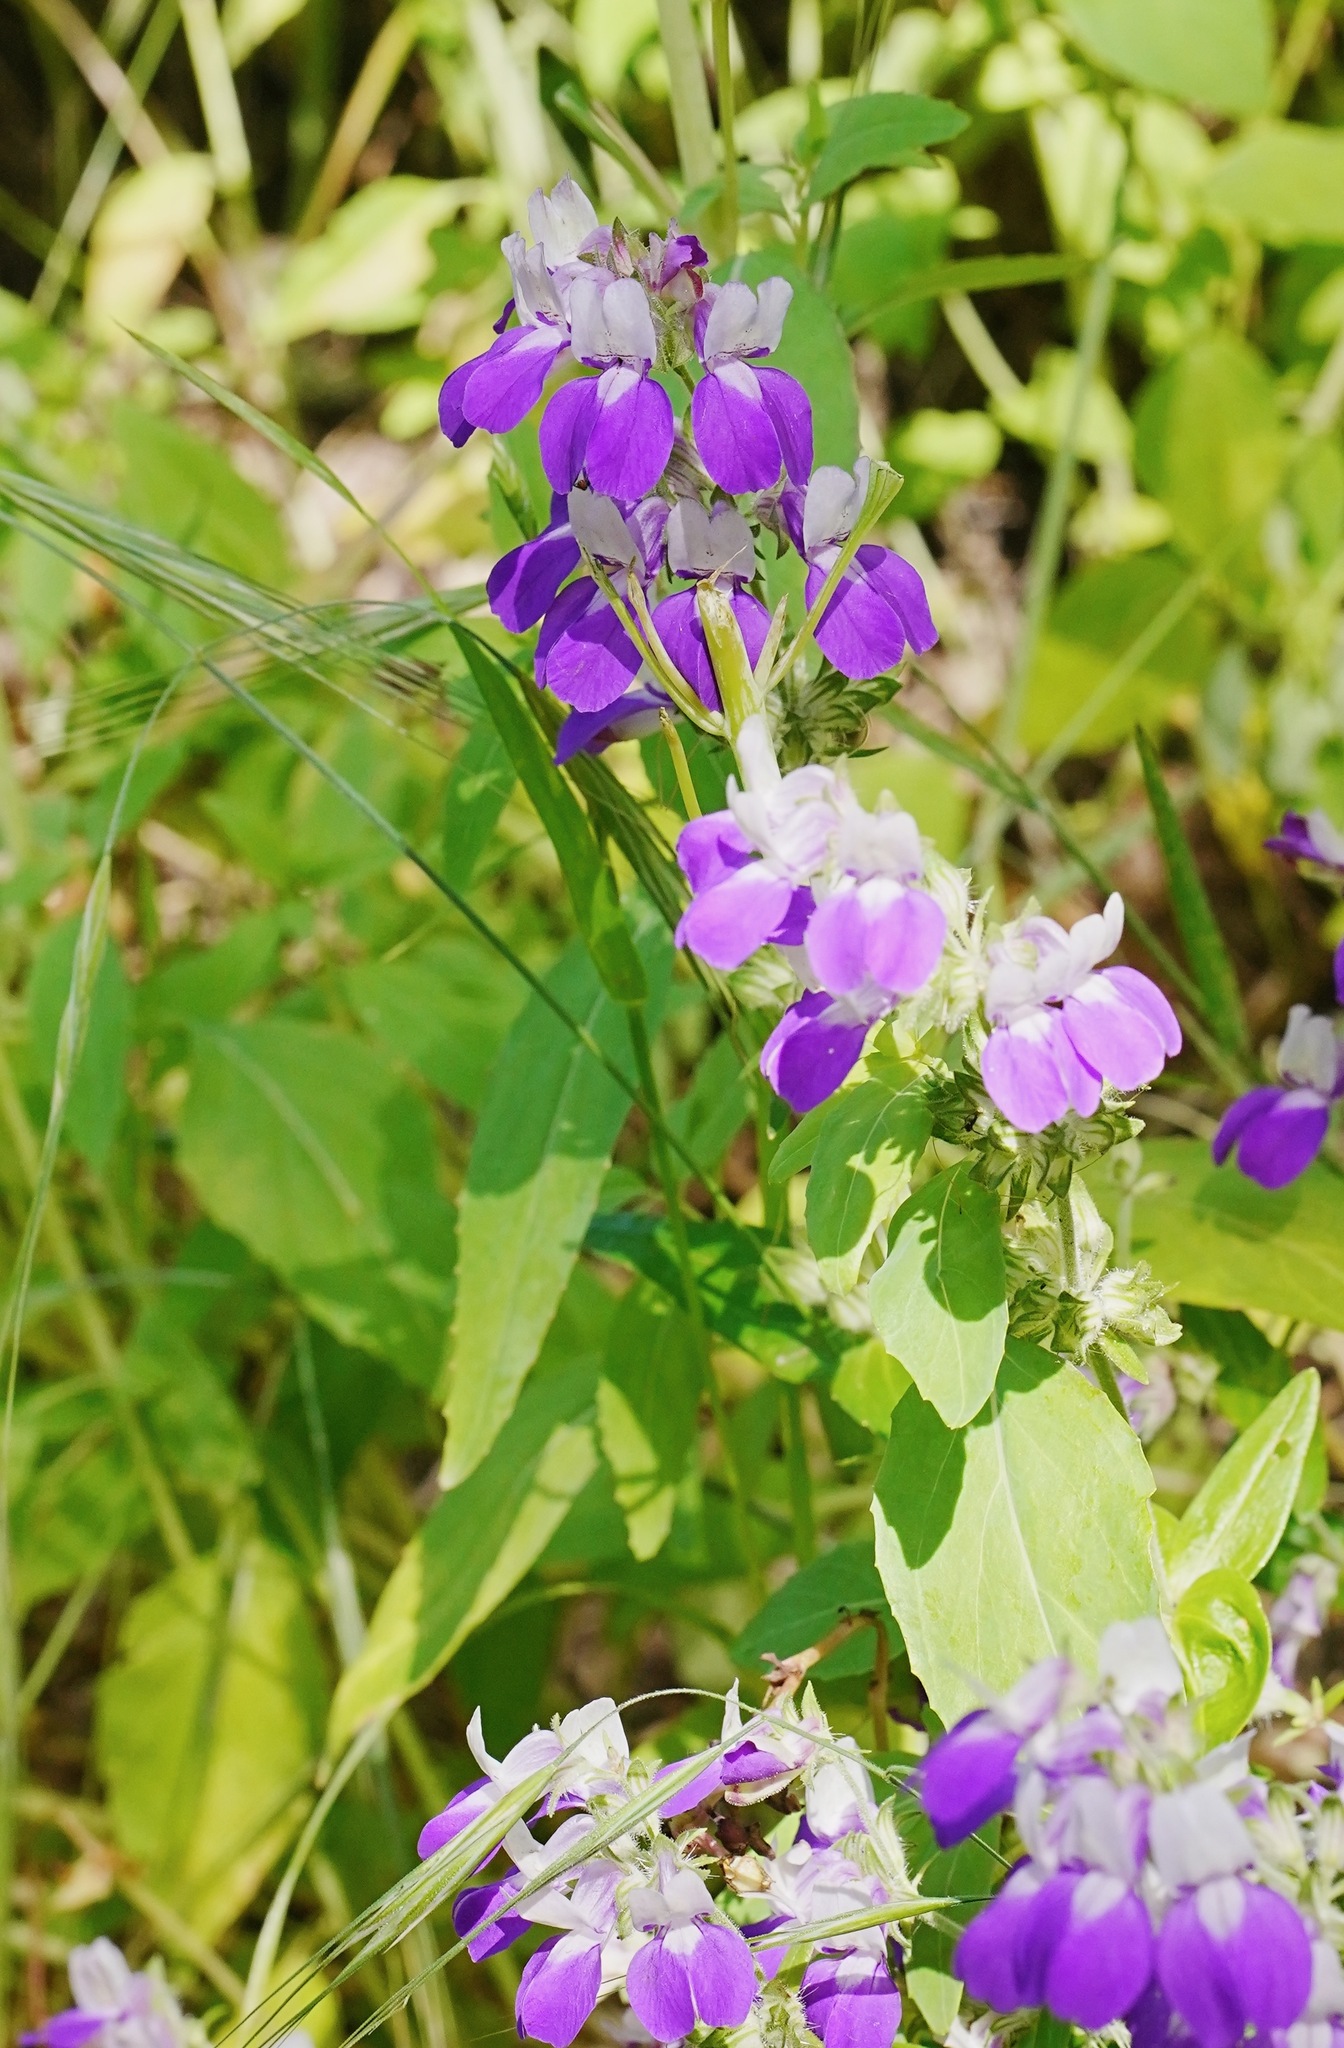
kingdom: Plantae
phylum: Tracheophyta
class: Magnoliopsida
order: Lamiales
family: Plantaginaceae
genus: Collinsia
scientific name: Collinsia heterophylla
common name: Chinese-houses
